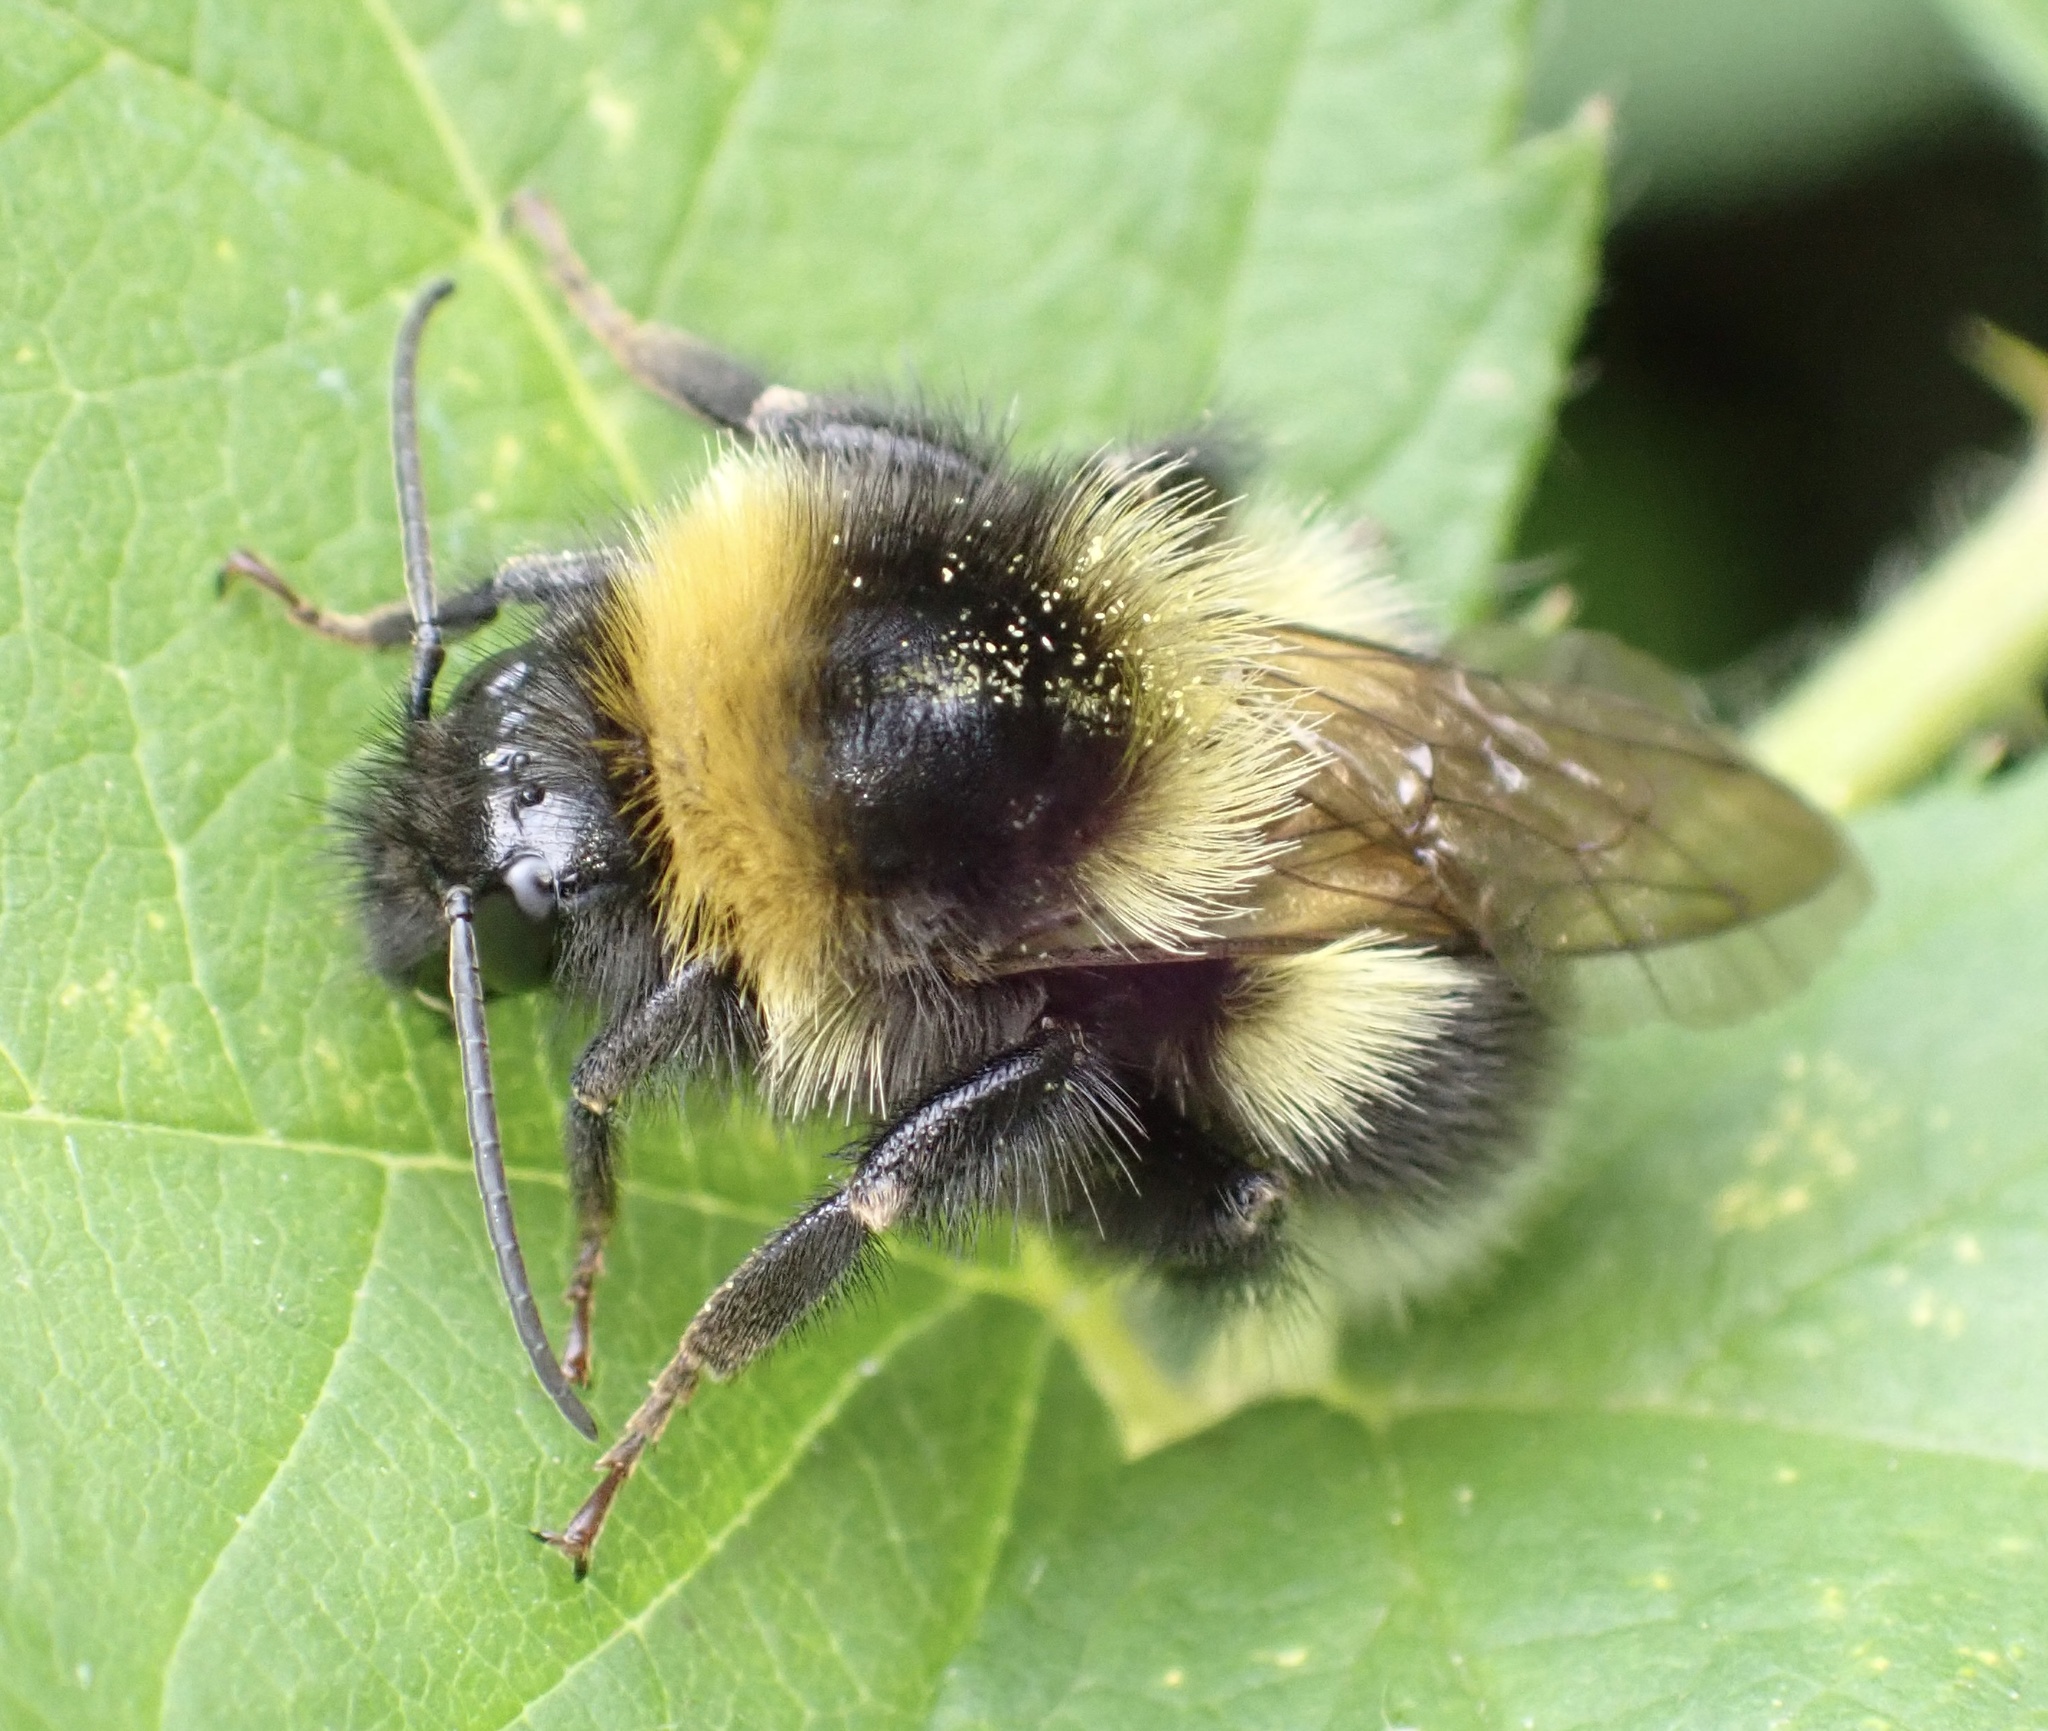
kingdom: Animalia
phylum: Arthropoda
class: Insecta
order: Hymenoptera
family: Apidae
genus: Bombus
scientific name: Bombus hortorum
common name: Garden bumblebee
